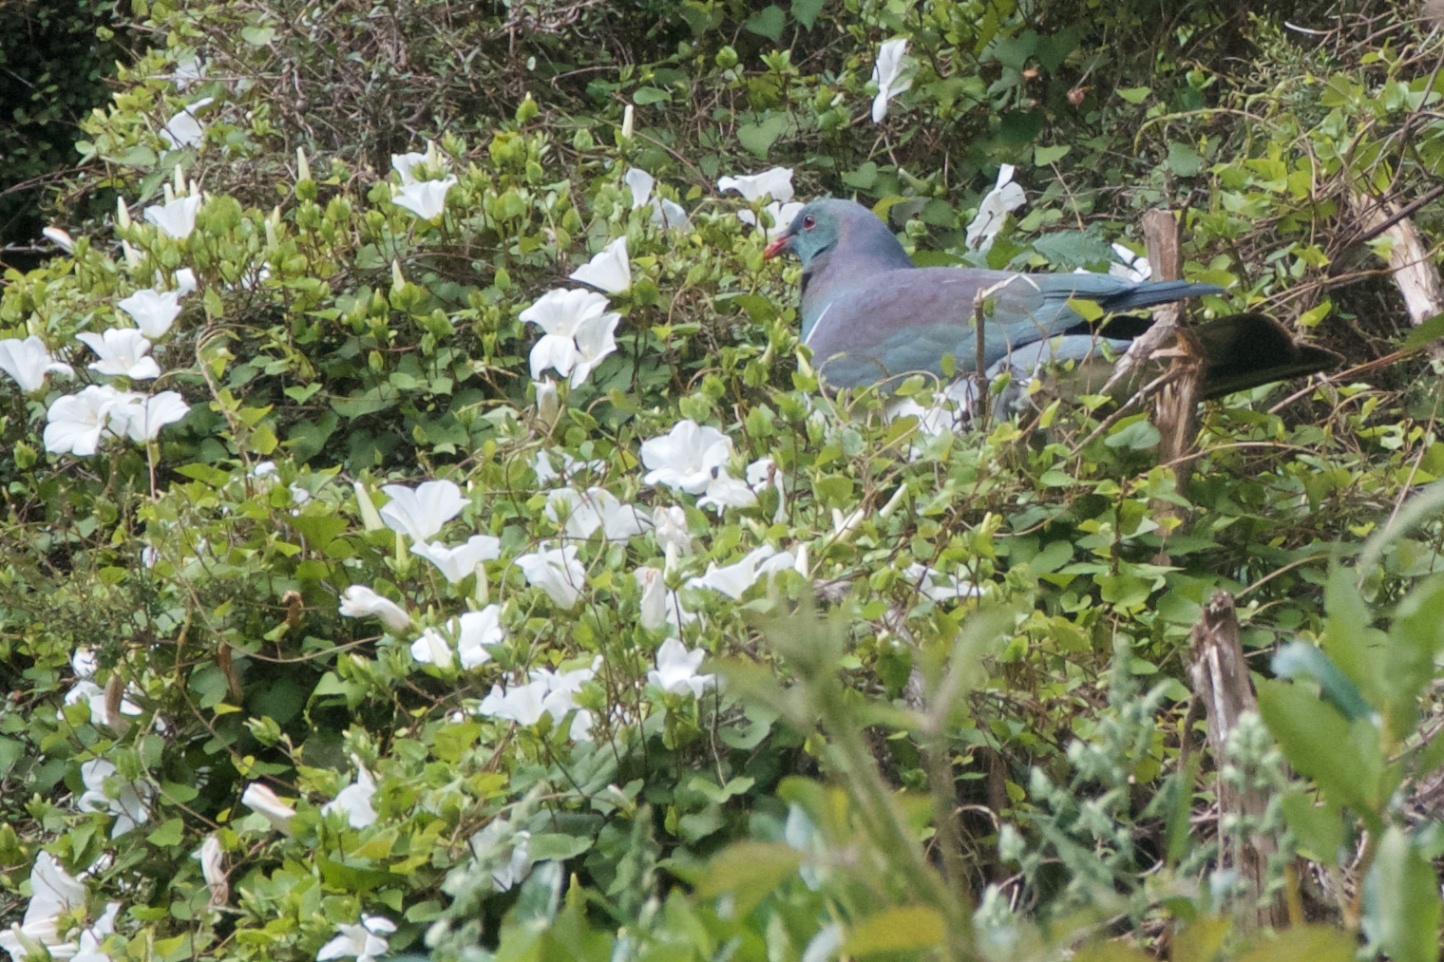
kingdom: Animalia
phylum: Chordata
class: Aves
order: Columbiformes
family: Columbidae
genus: Hemiphaga
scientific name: Hemiphaga novaeseelandiae
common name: New zealand pigeon
